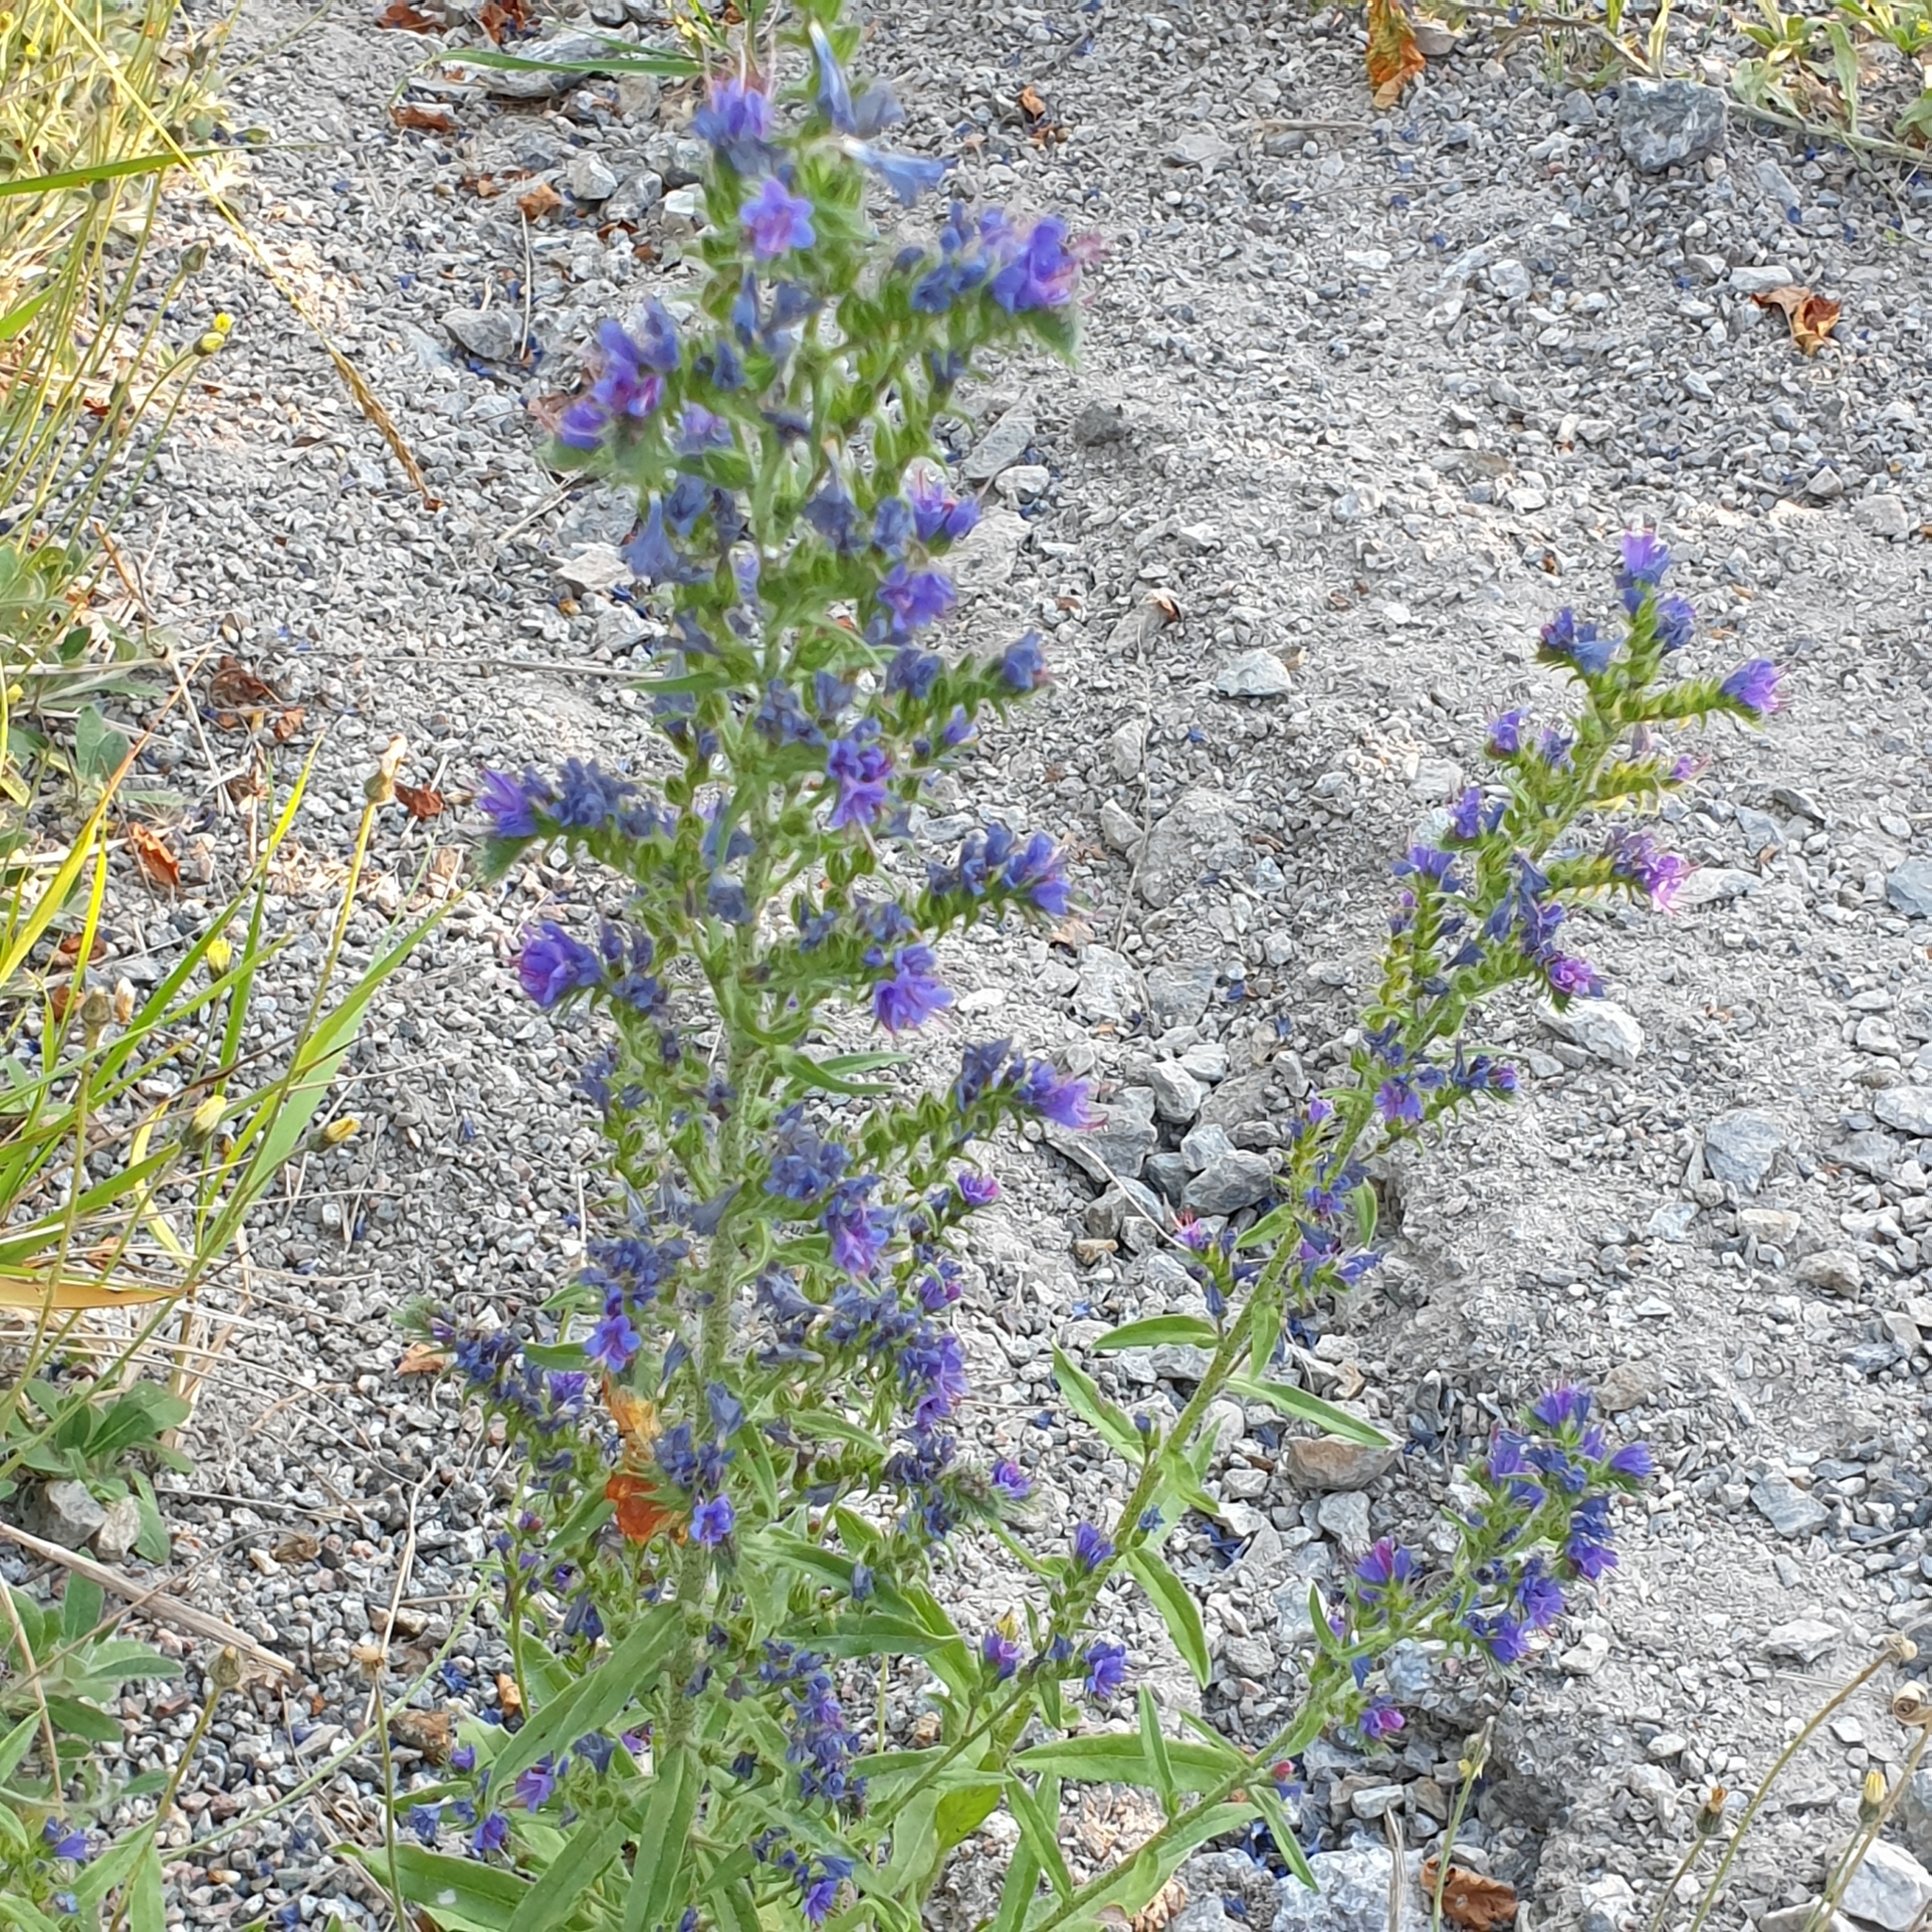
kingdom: Plantae
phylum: Tracheophyta
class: Magnoliopsida
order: Boraginales
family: Boraginaceae
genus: Echium
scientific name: Echium vulgare
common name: Common viper's bugloss
